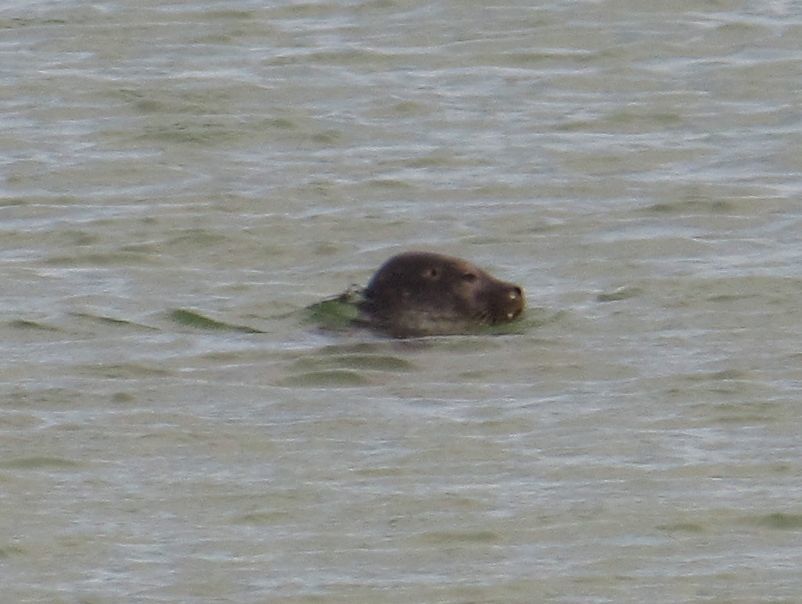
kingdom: Animalia
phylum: Chordata
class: Mammalia
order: Carnivora
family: Phocidae
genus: Phoca
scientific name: Phoca vitulina
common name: Harbor seal
